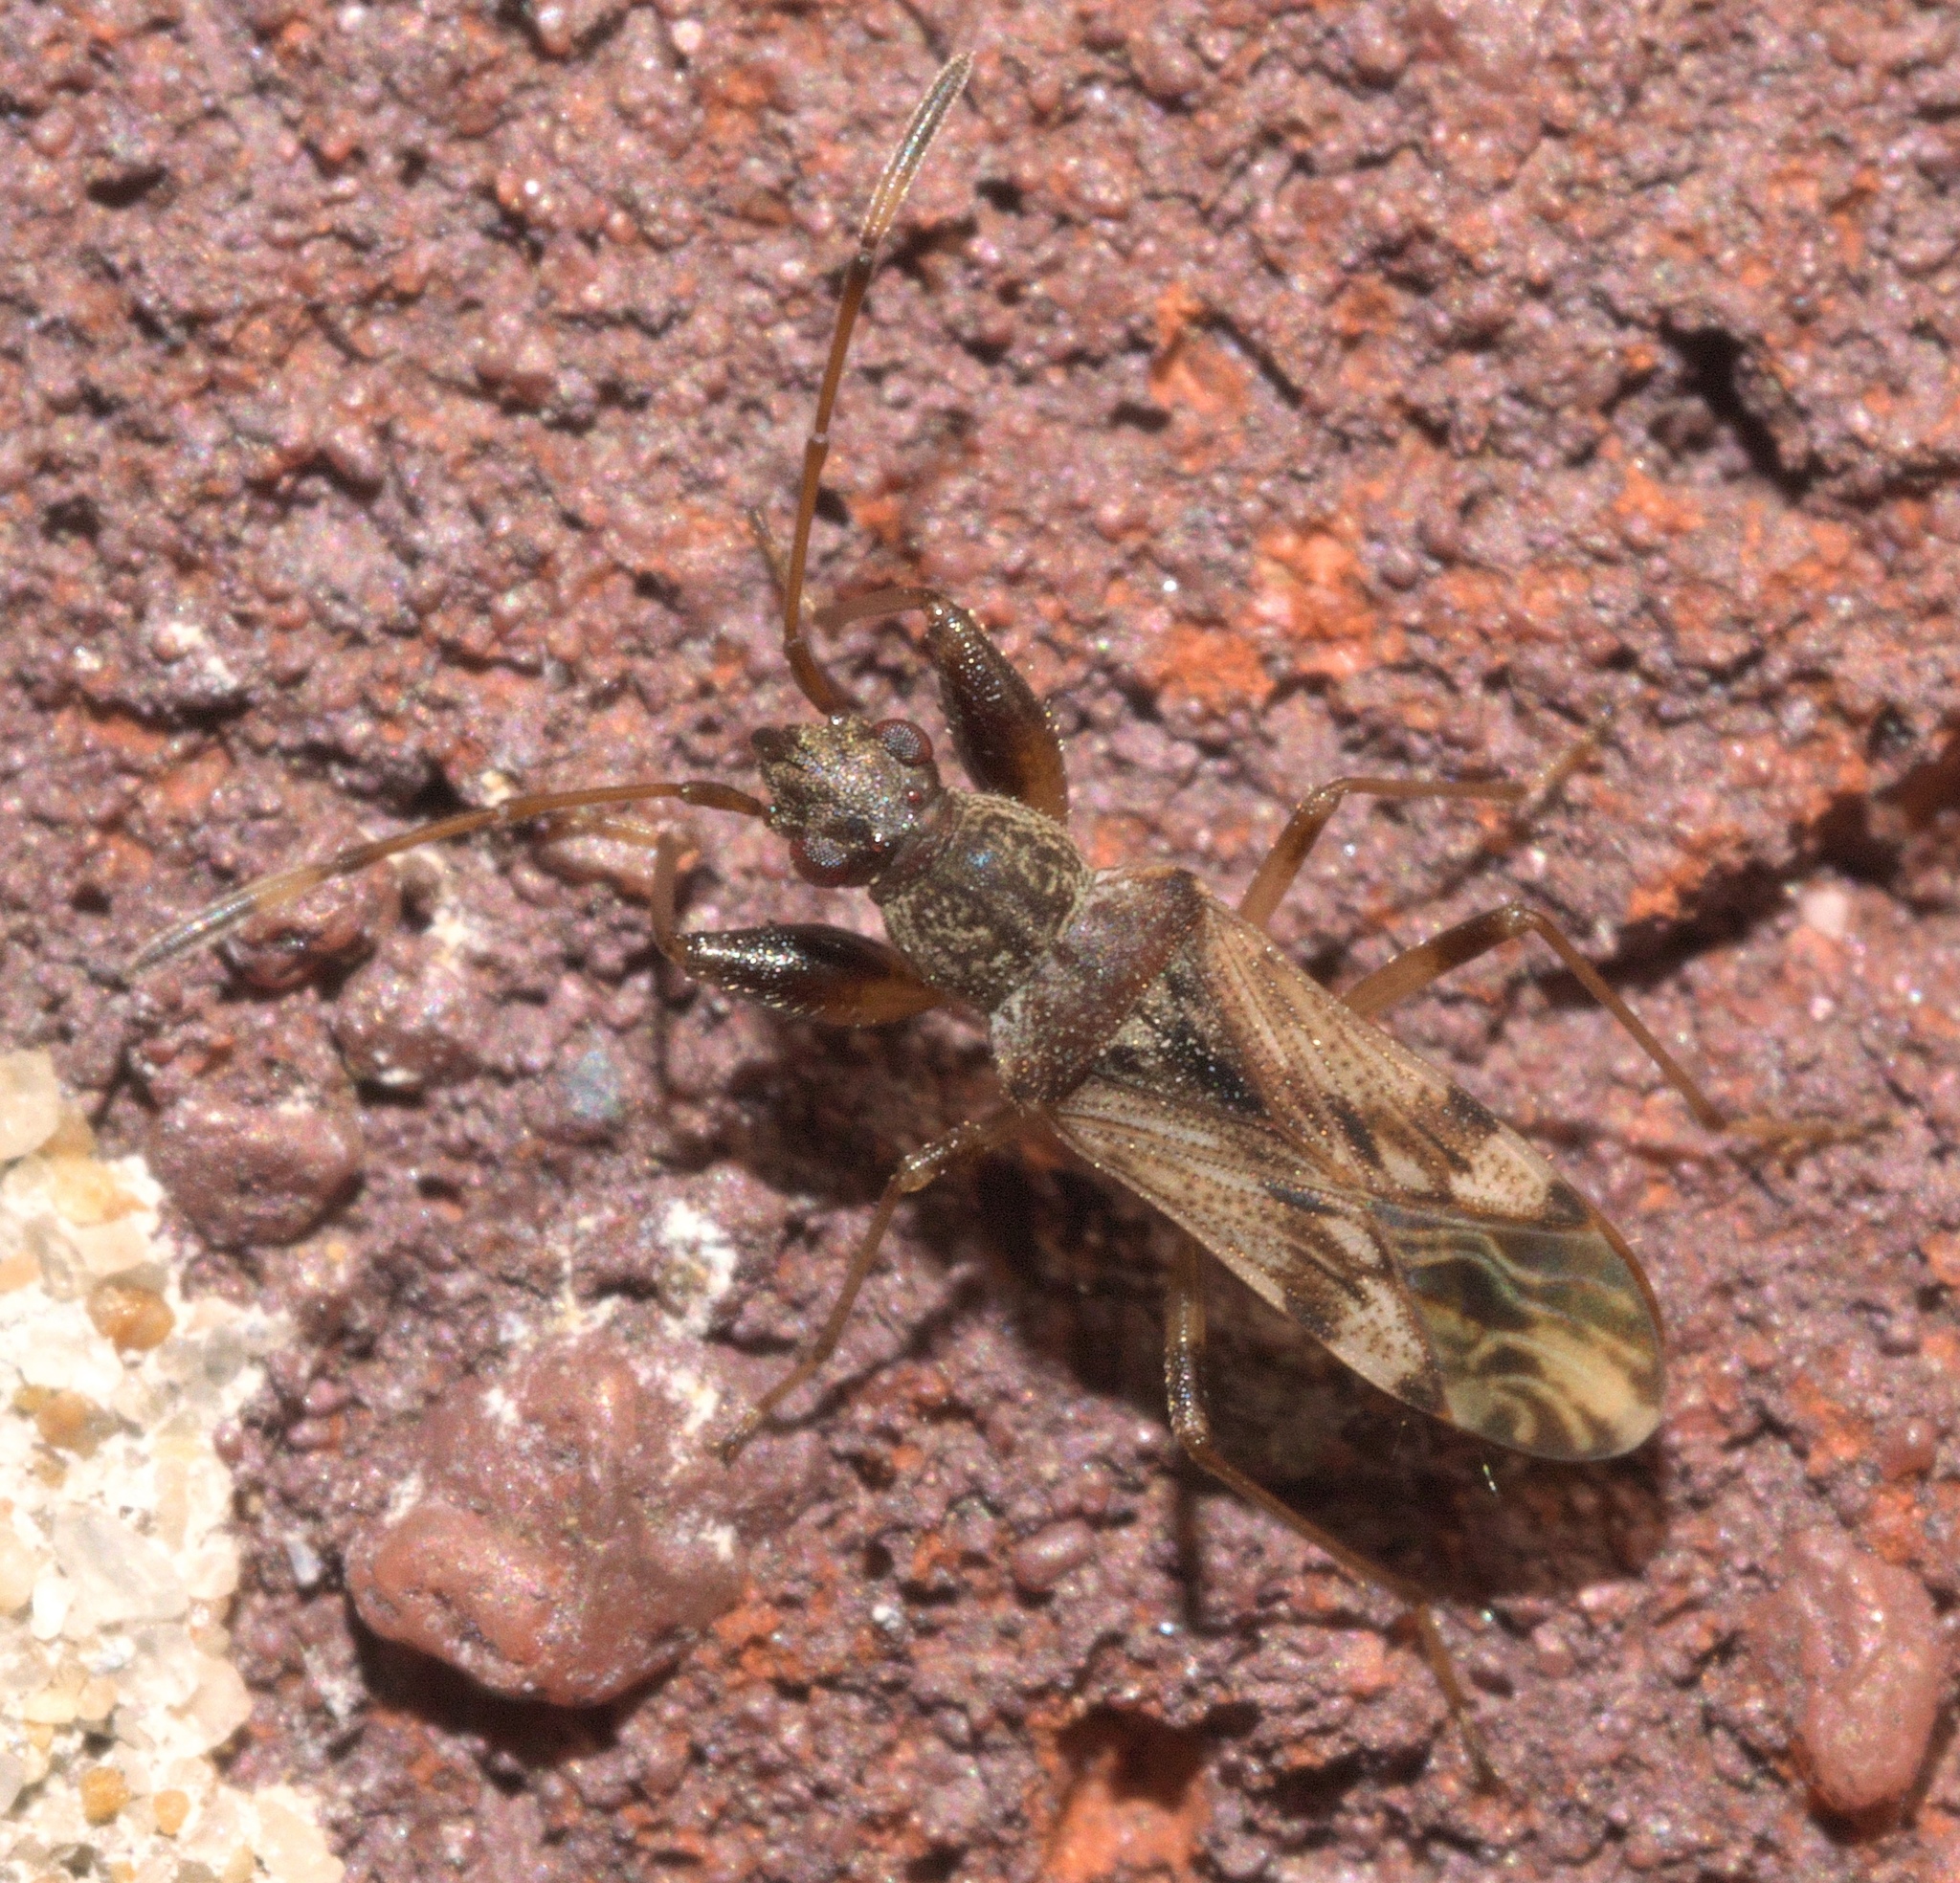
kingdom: Animalia
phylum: Arthropoda
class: Insecta
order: Hemiptera
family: Rhyparochromidae
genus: Neopamera
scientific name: Neopamera albocincta
